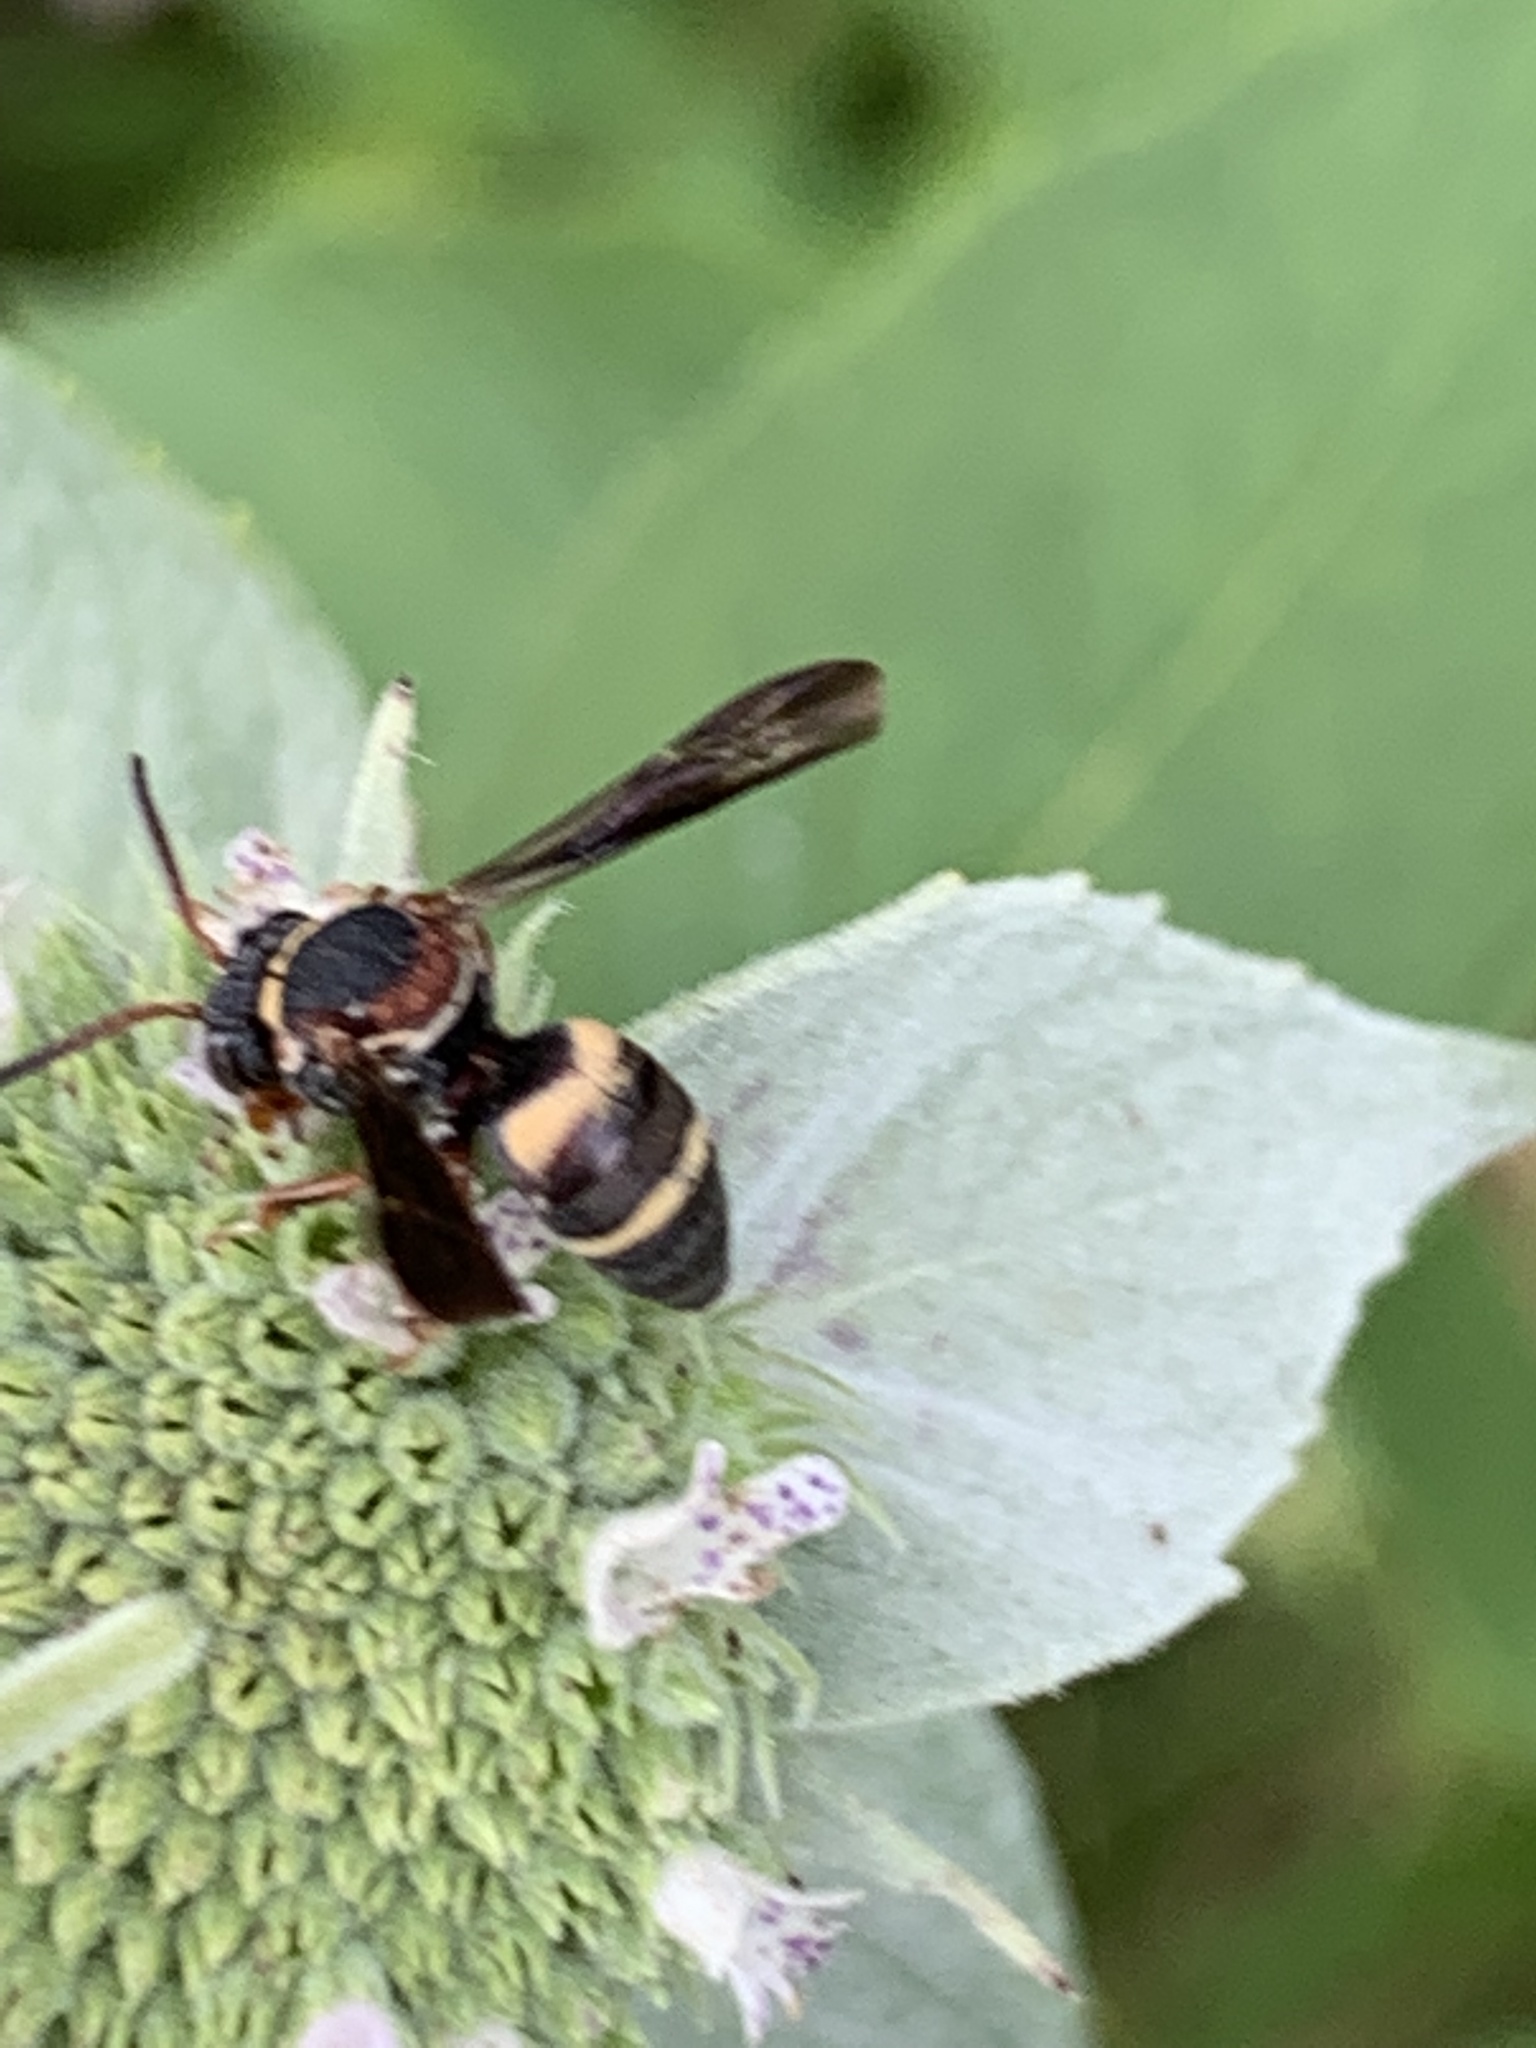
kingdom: Animalia
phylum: Arthropoda
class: Insecta
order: Hymenoptera
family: Apidae
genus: Epeolus
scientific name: Epeolus bifasciatus
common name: Two-banded cellophane-cuckoo
